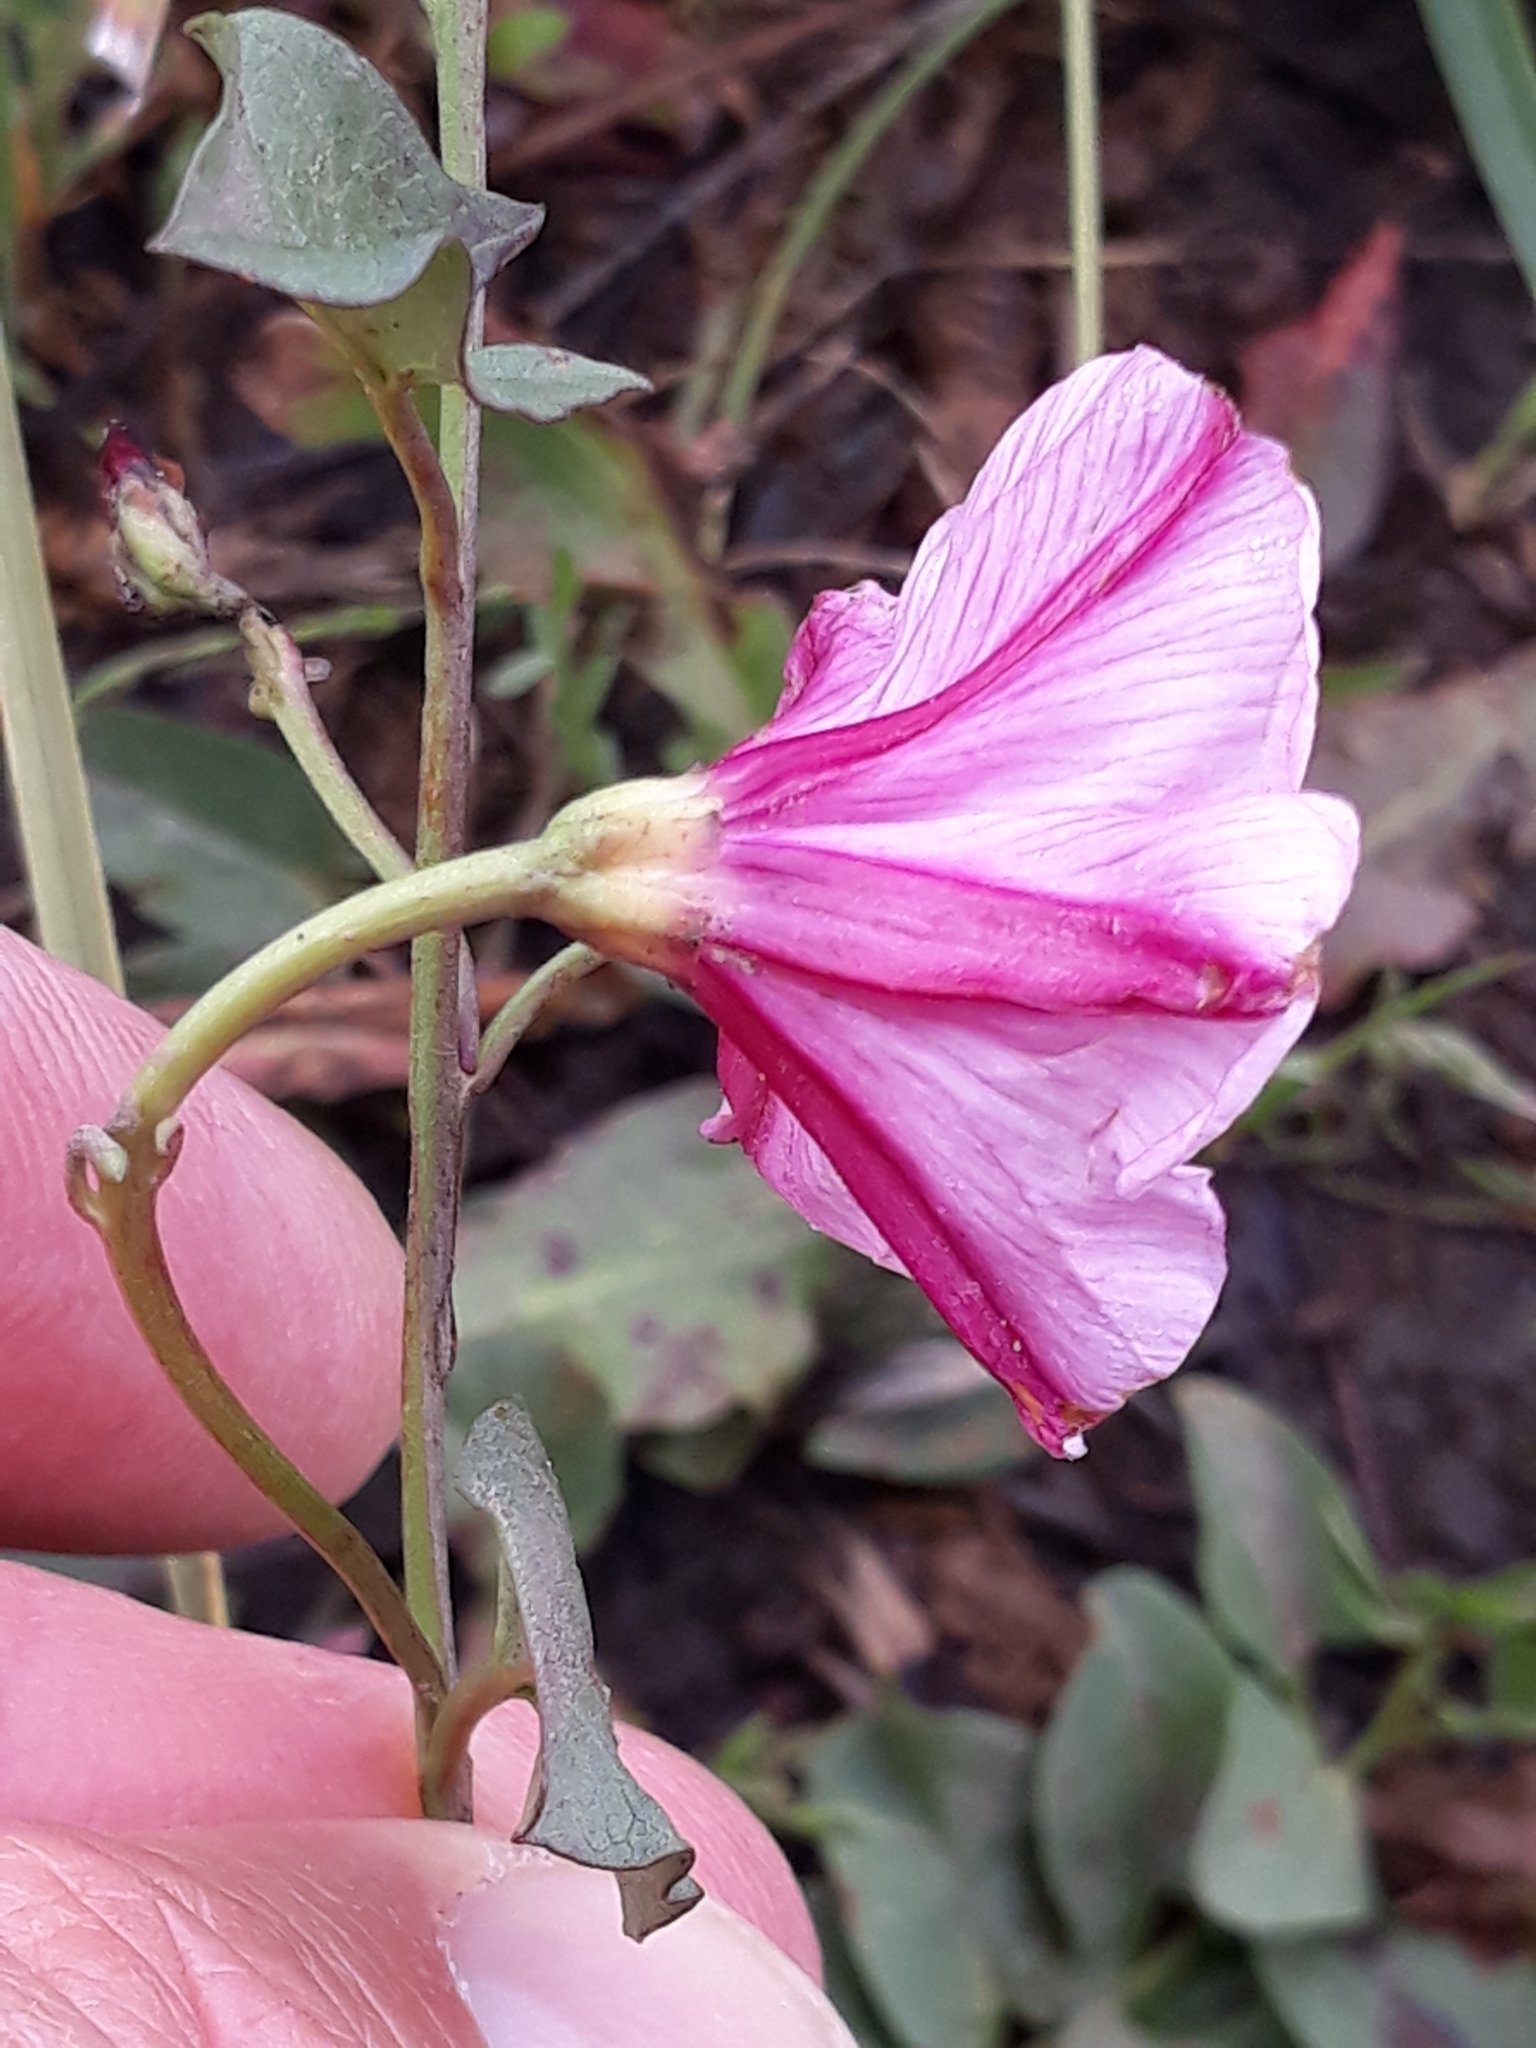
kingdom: Plantae
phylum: Tracheophyta
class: Magnoliopsida
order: Solanales
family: Convolvulaceae
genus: Convolvulus
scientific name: Convolvulus durandoi
